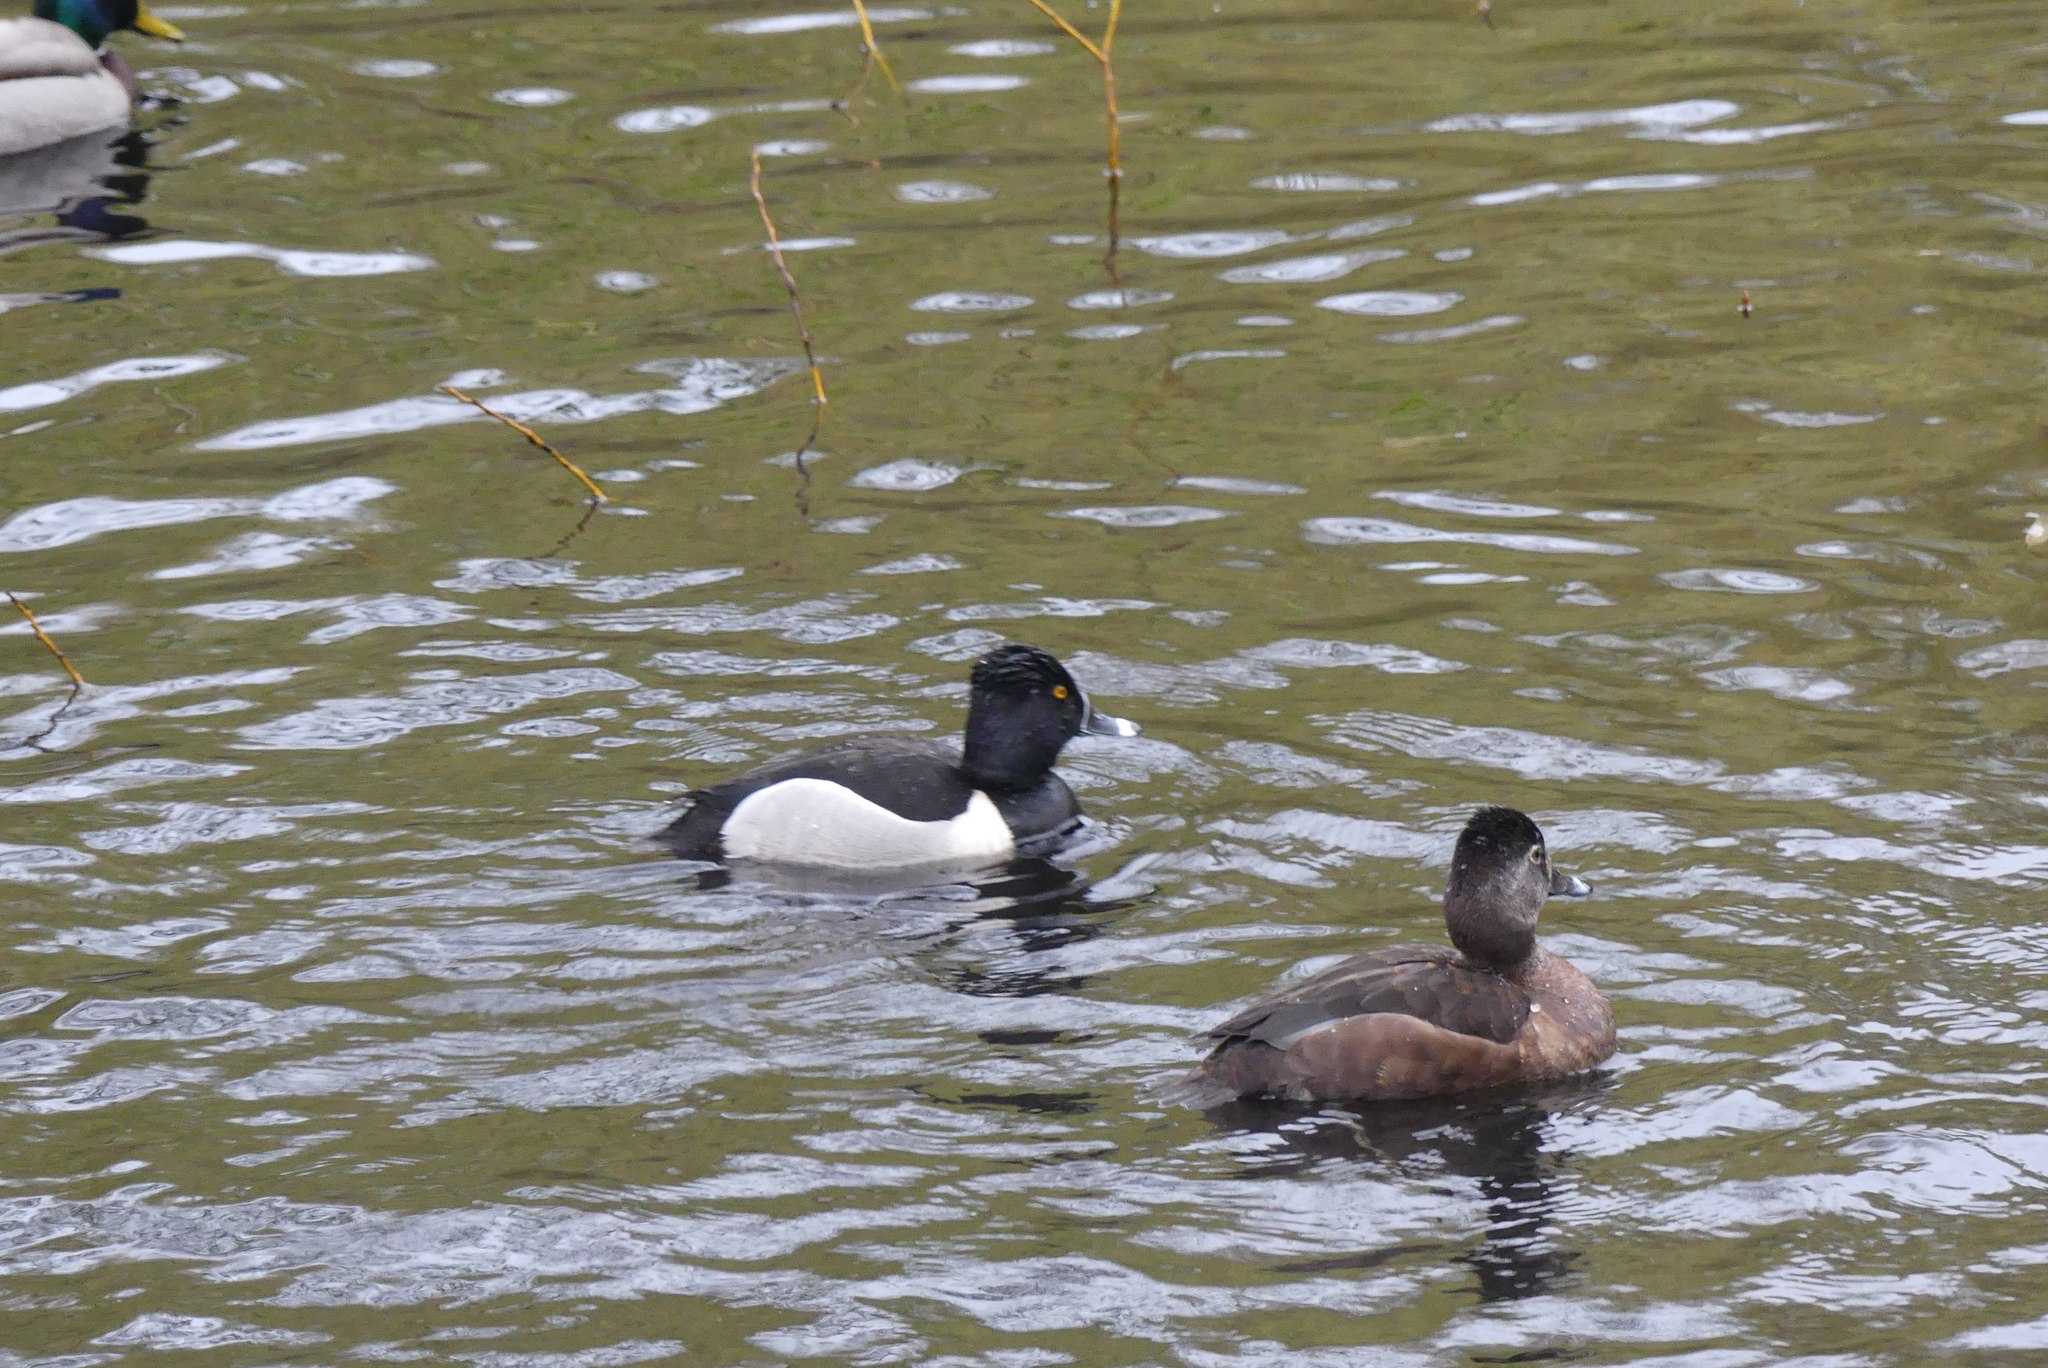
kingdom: Animalia
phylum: Chordata
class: Aves
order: Anseriformes
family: Anatidae
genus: Aythya
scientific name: Aythya collaris
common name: Ring-necked duck
